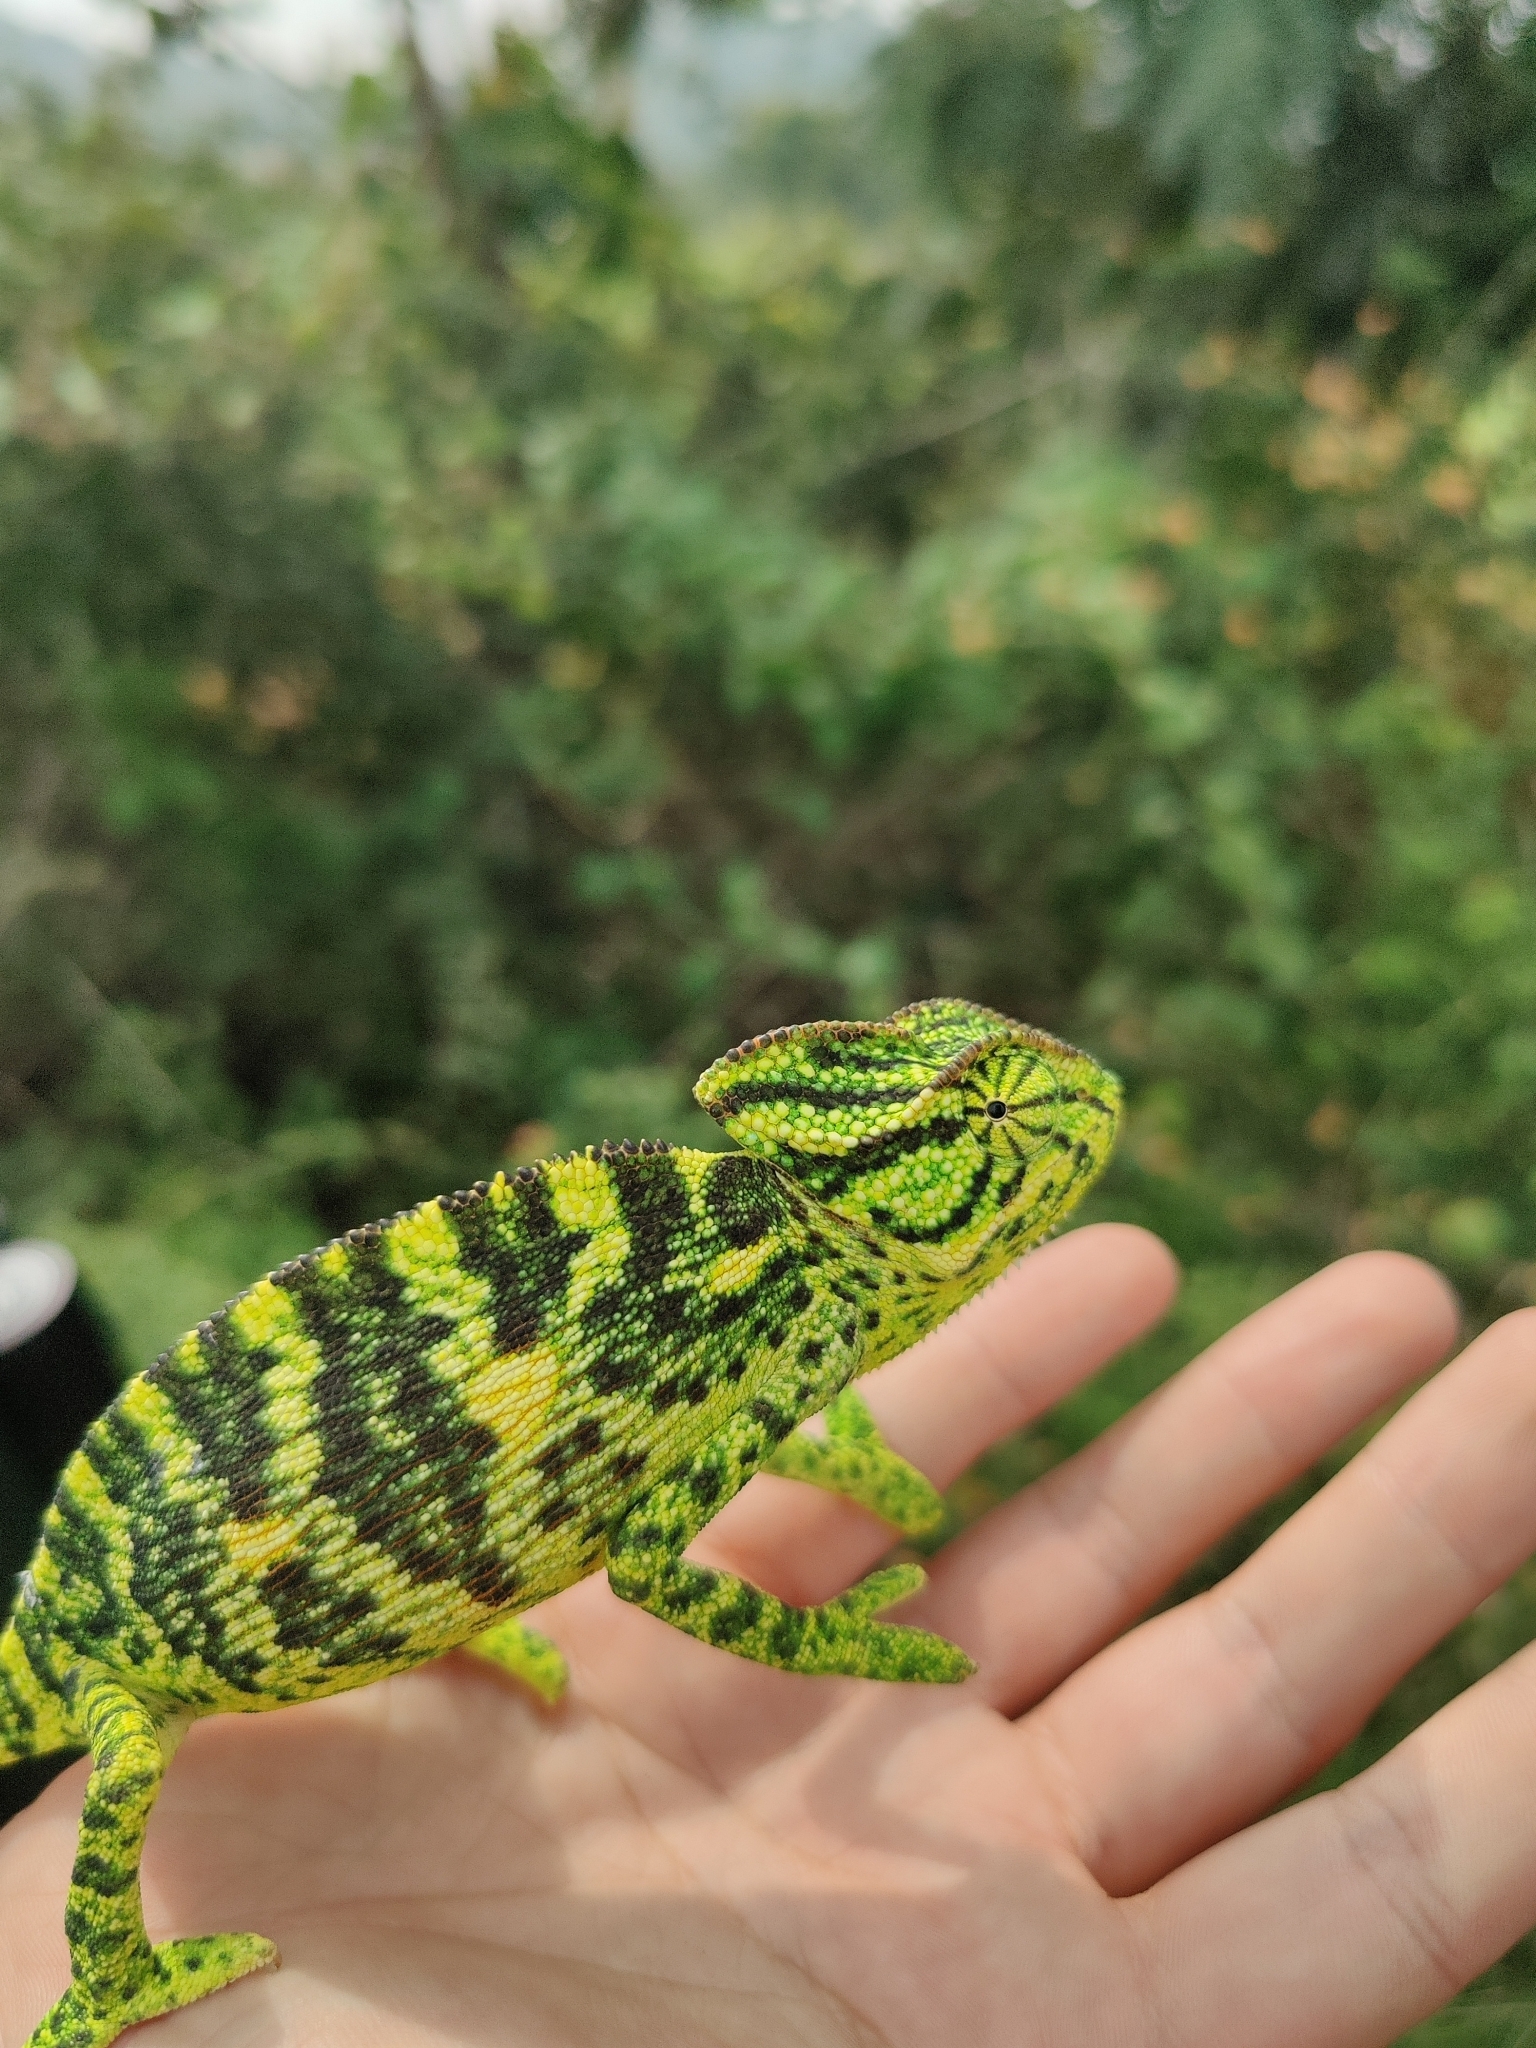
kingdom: Animalia
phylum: Chordata
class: Squamata
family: Chamaeleonidae
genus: Chamaeleo
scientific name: Chamaeleo zeylanicus
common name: Indian chameleon
